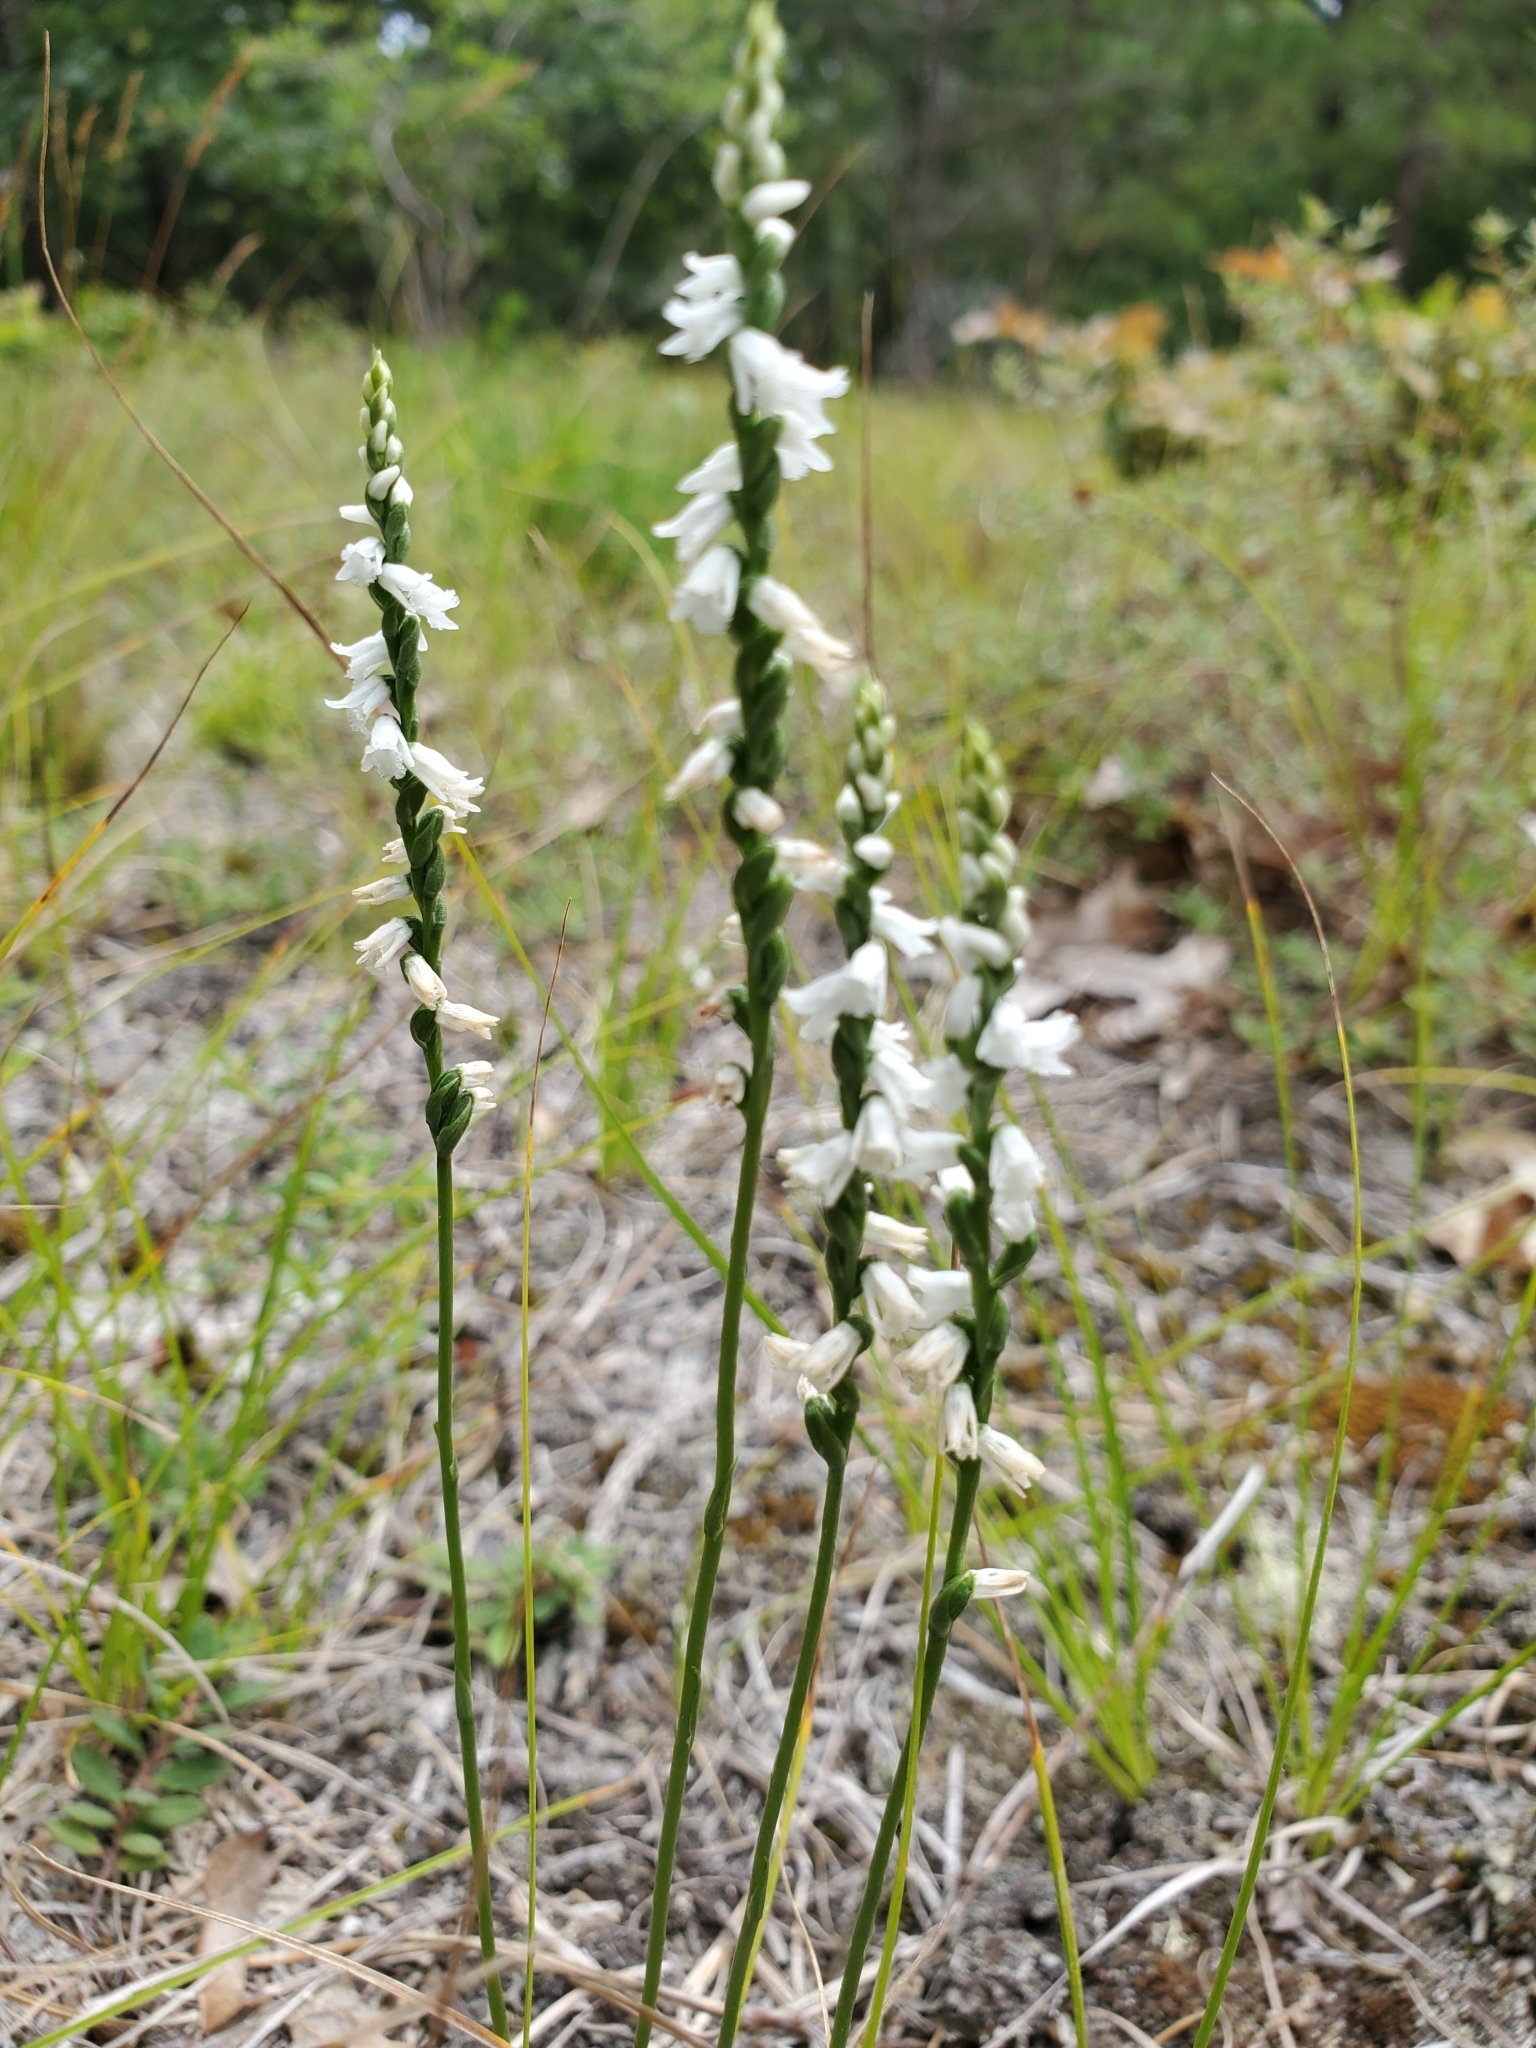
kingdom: Plantae
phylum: Tracheophyta
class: Liliopsida
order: Asparagales
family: Orchidaceae
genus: Spiranthes
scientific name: Spiranthes tuberosa
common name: Little ladies'-tresses
